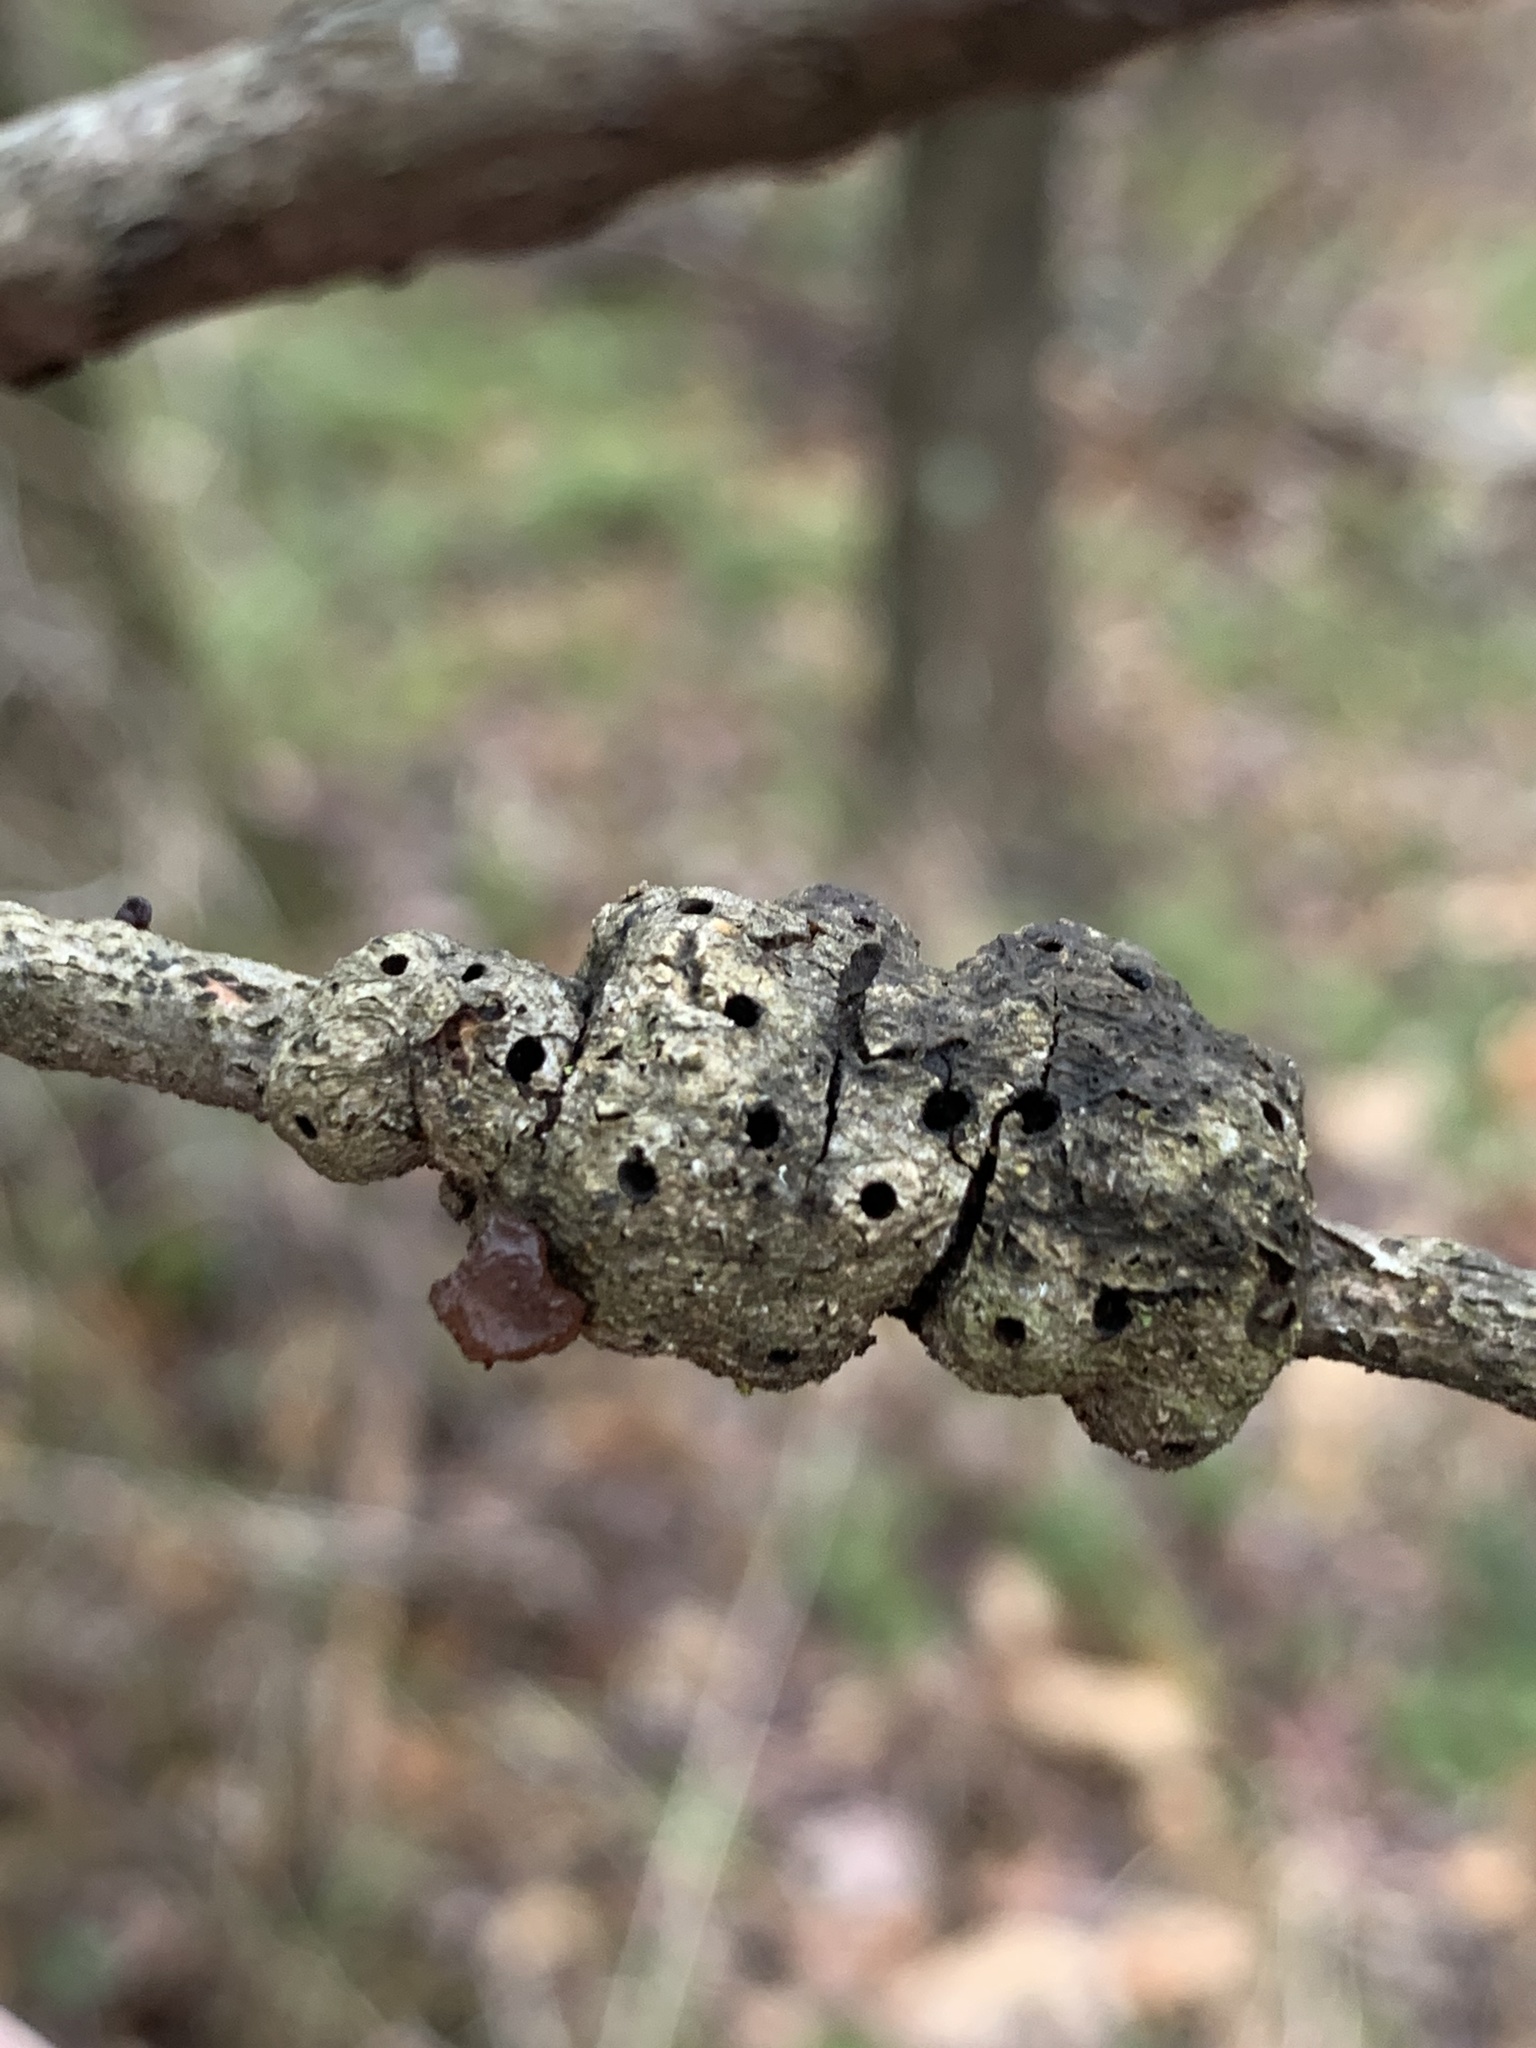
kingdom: Animalia
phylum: Arthropoda
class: Insecta
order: Hymenoptera
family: Cynipidae
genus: Callirhytis
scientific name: Callirhytis
